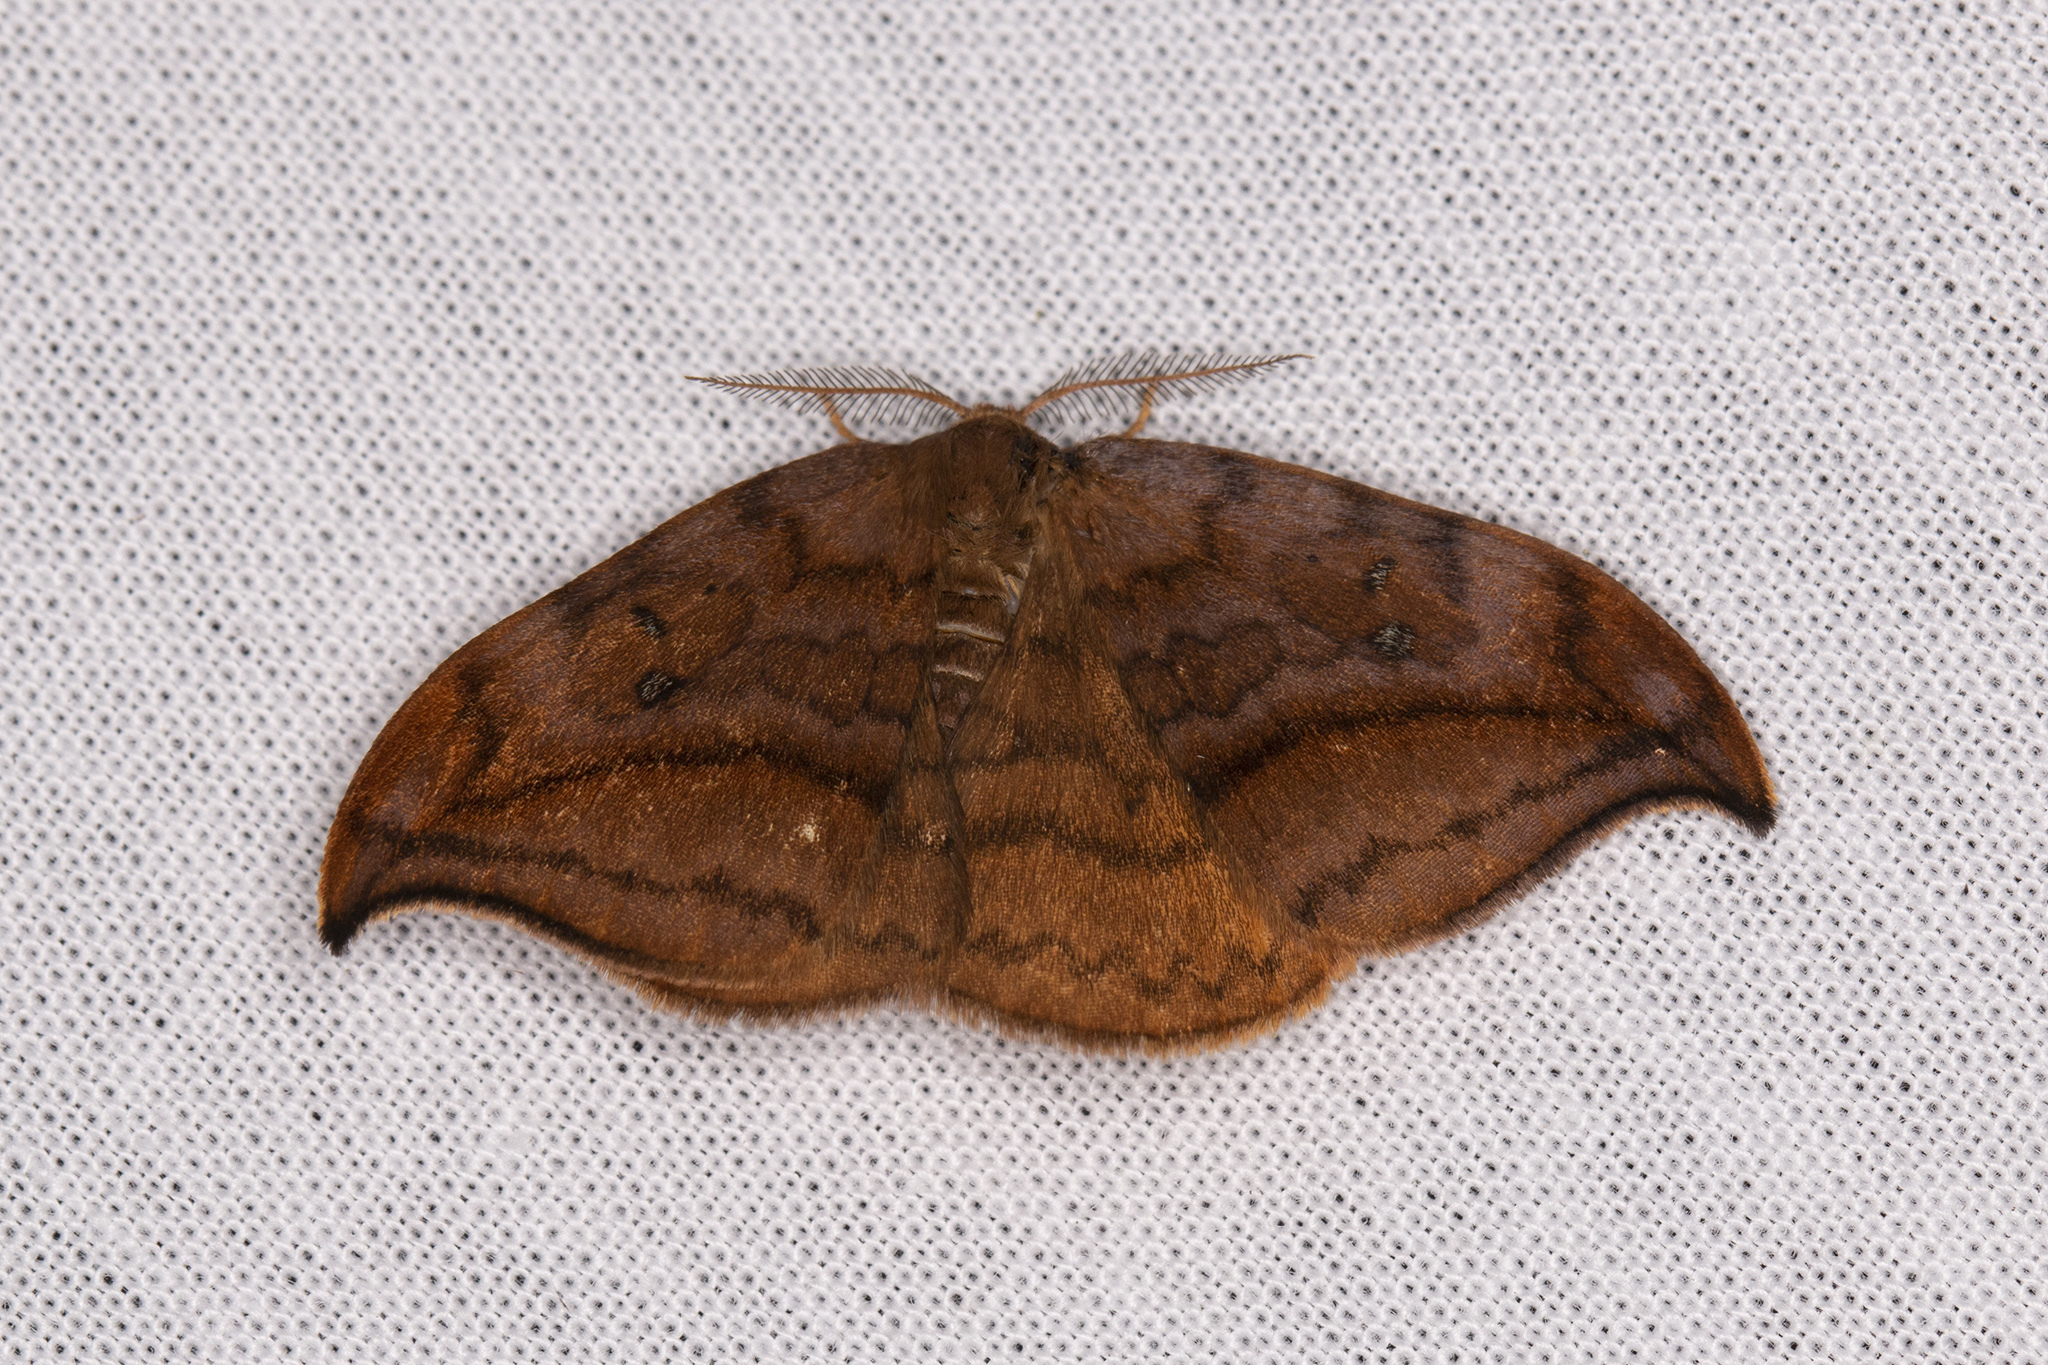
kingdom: Animalia
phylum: Arthropoda
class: Insecta
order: Lepidoptera
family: Drepanidae
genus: Drepana
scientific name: Drepana curvatula
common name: Dusky hook-tip
